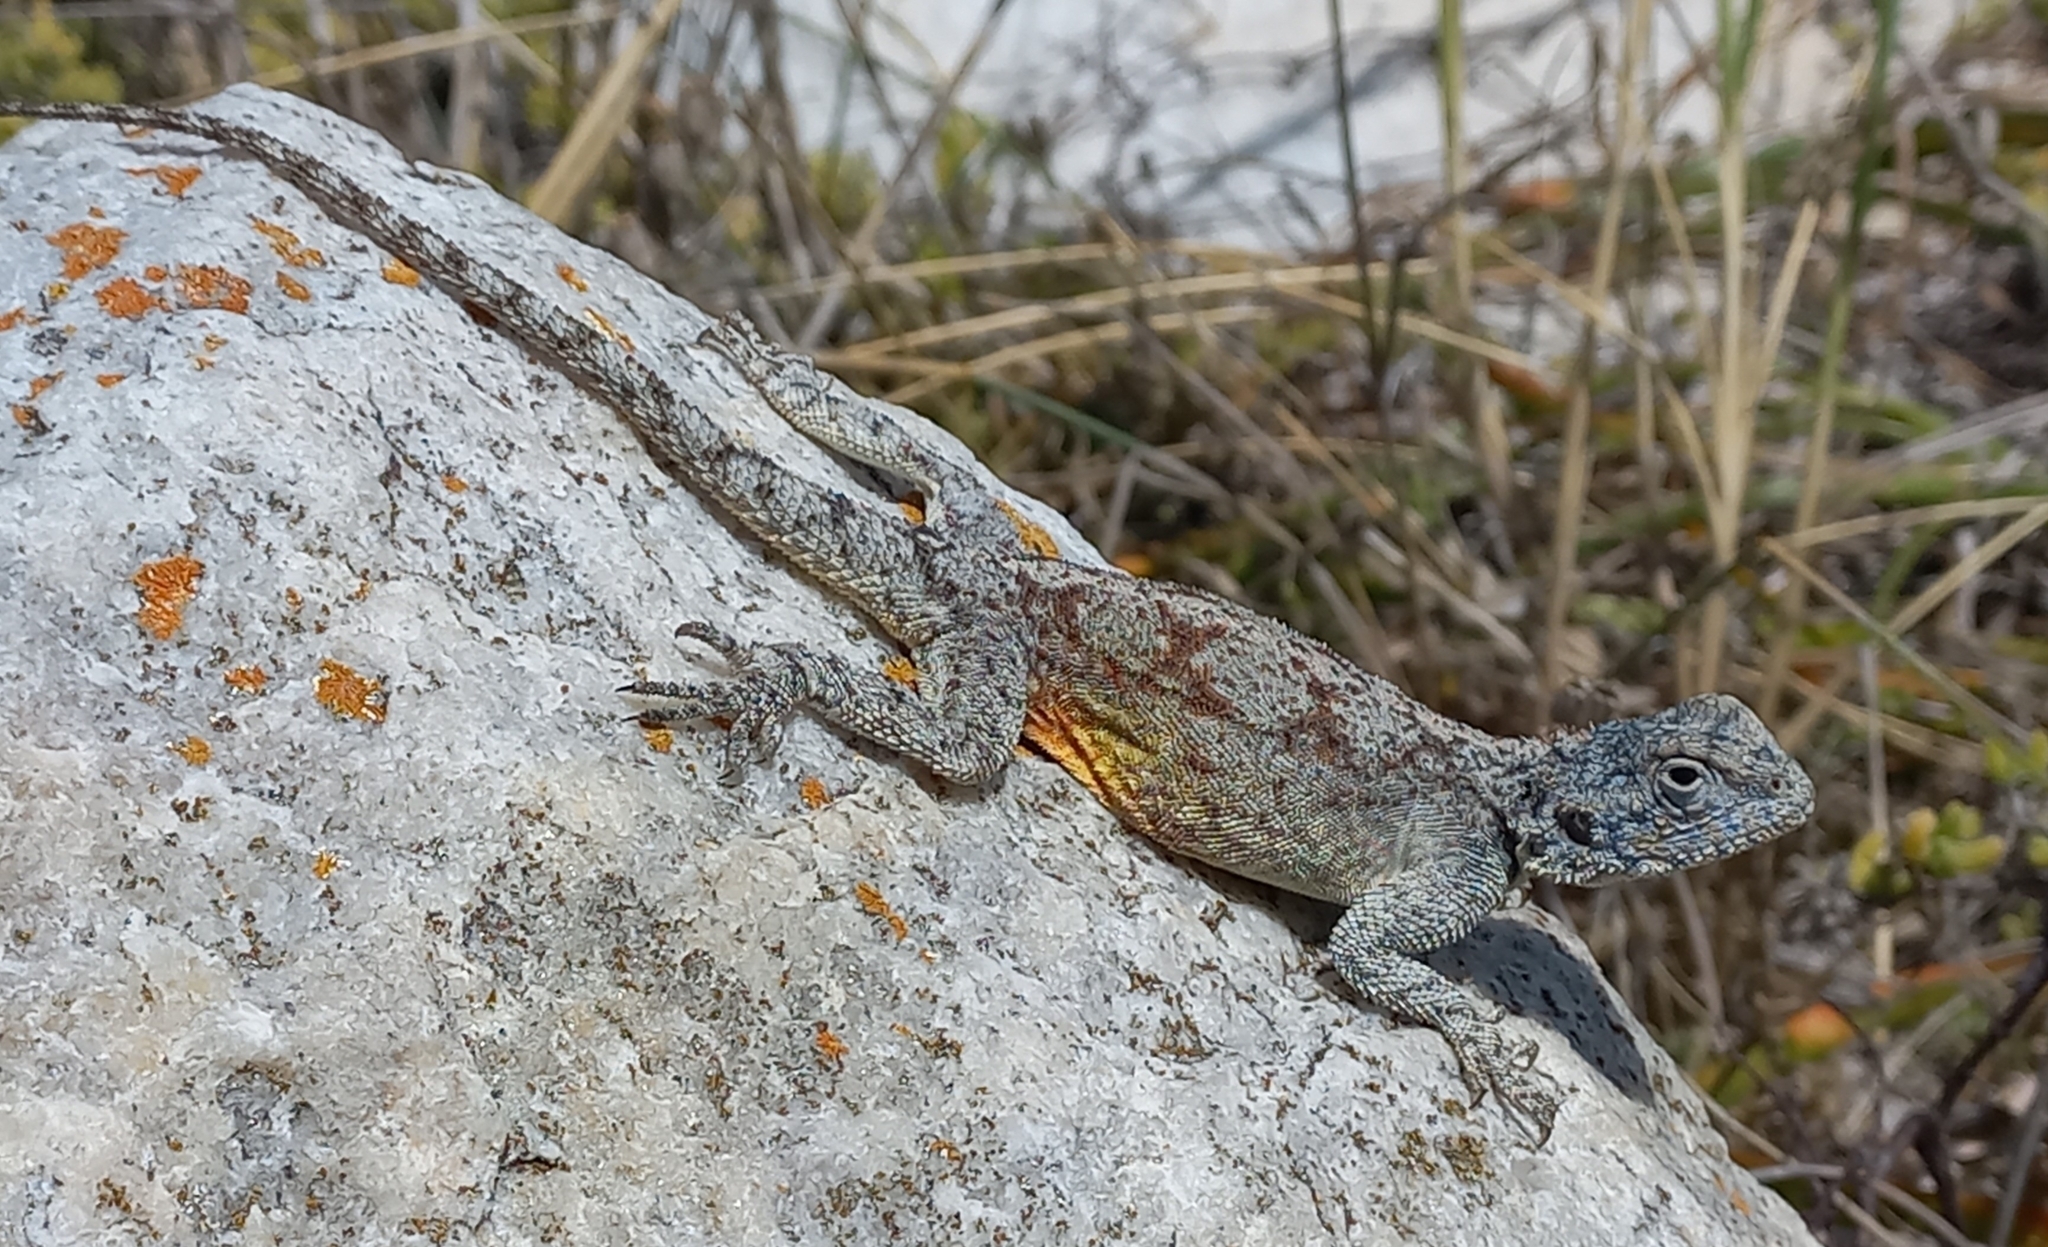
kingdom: Animalia
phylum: Chordata
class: Squamata
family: Agamidae
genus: Agama
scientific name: Agama atra
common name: Southern african rock agama
